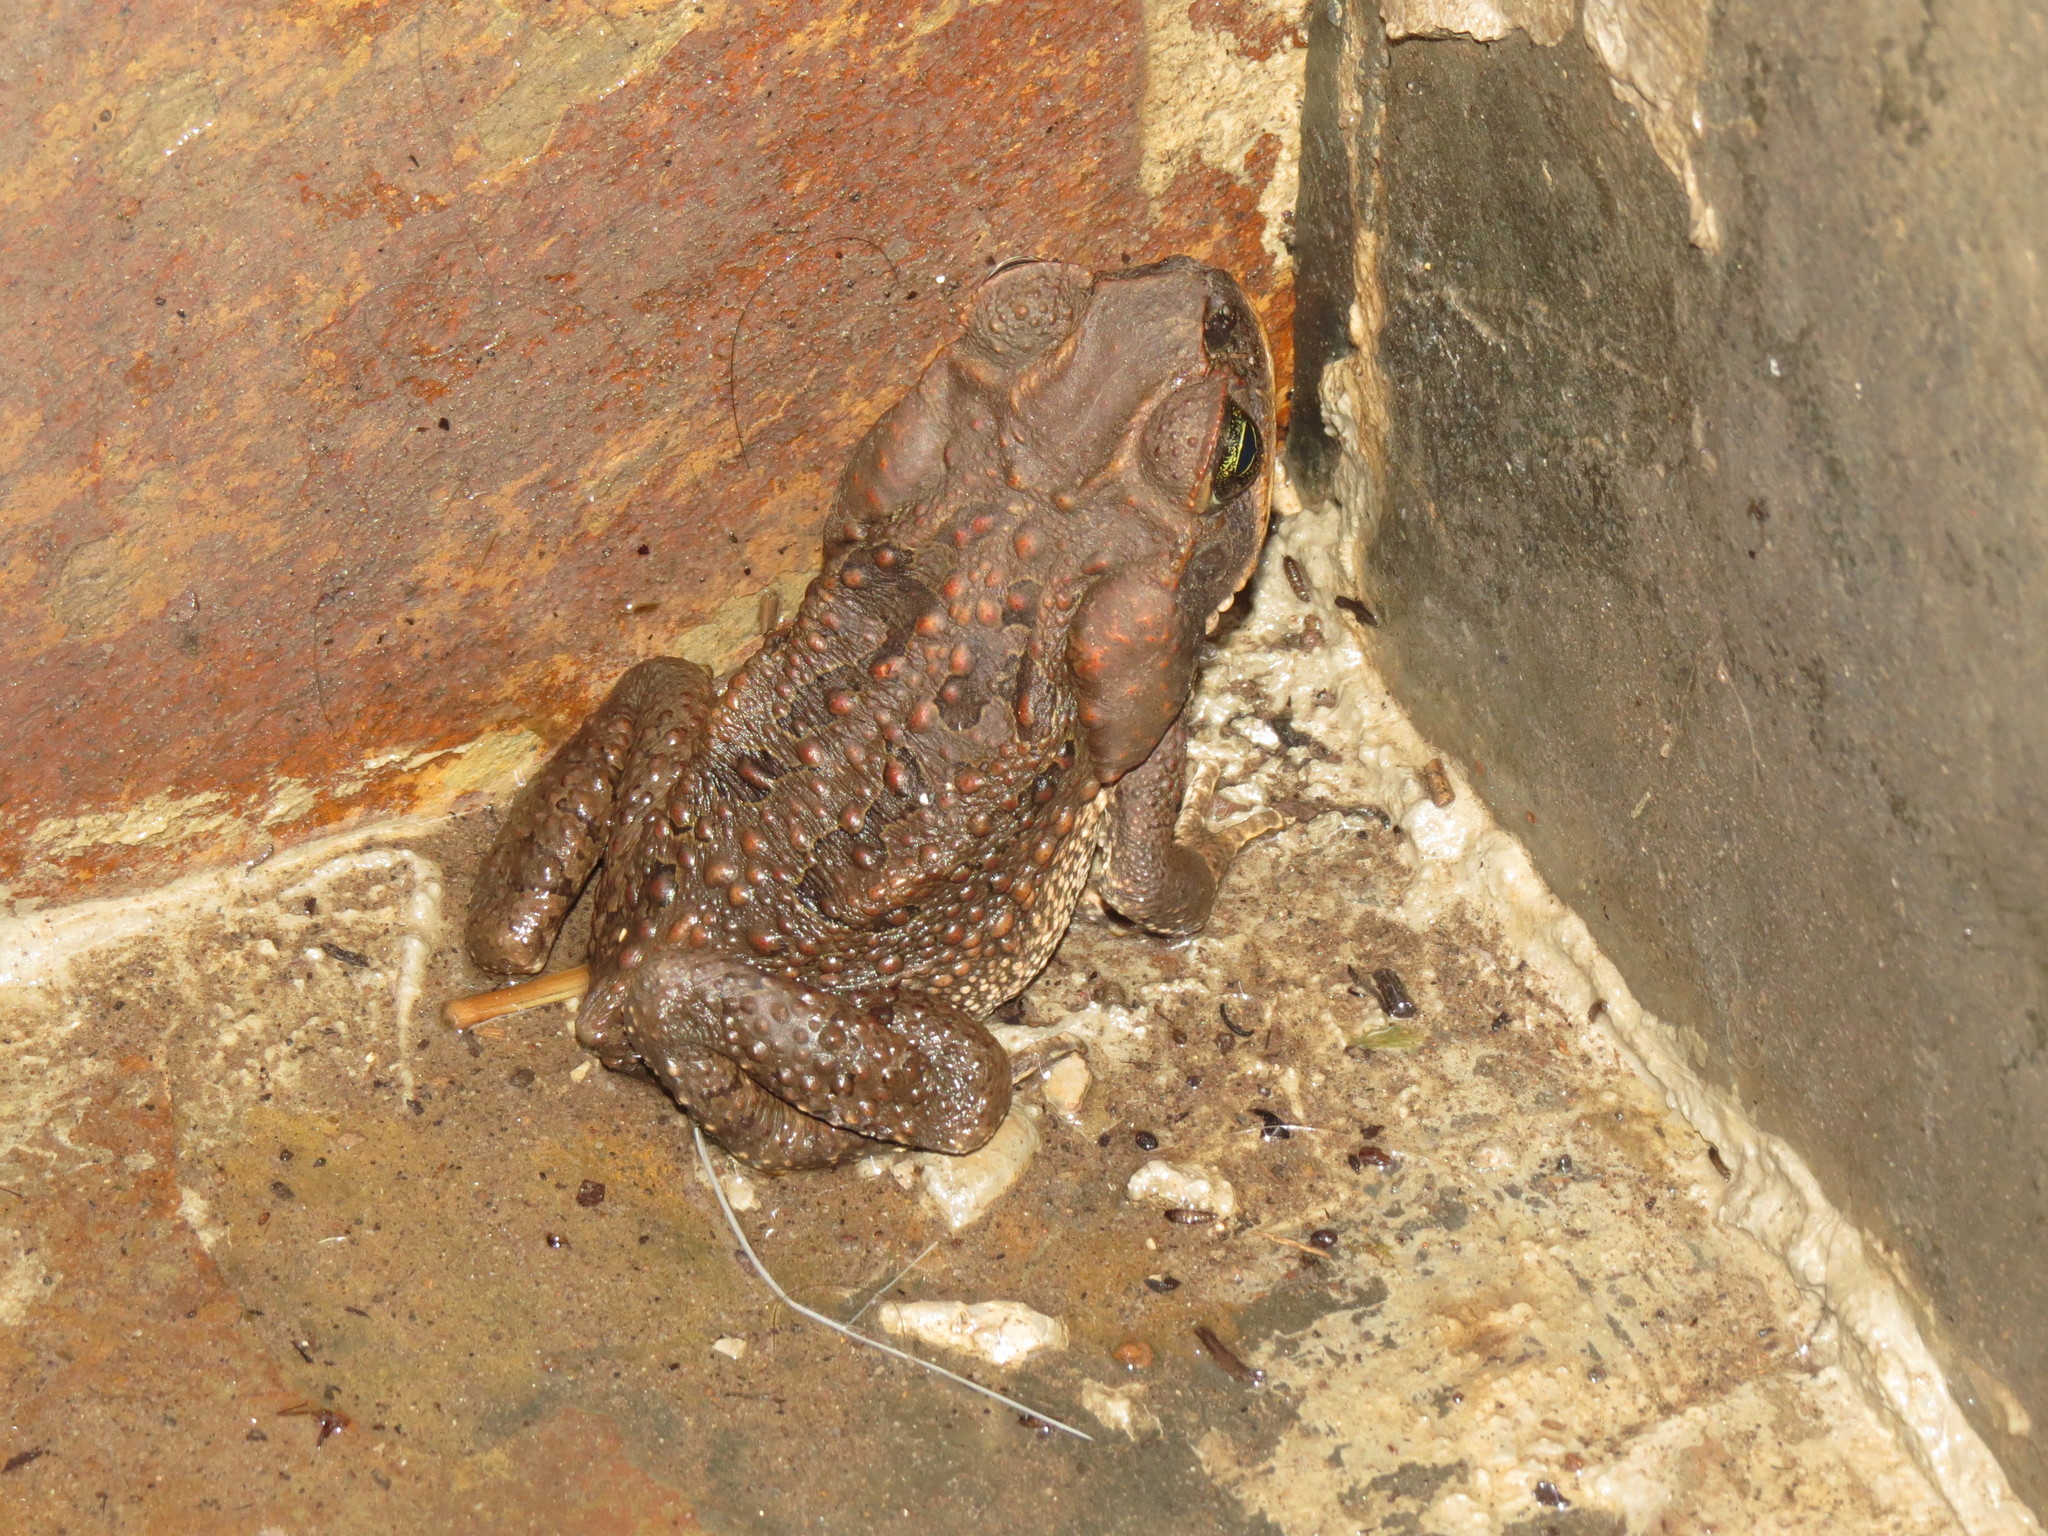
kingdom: Animalia
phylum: Chordata
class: Amphibia
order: Anura
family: Bufonidae
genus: Rhinella
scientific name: Rhinella marina
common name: Cane toad
